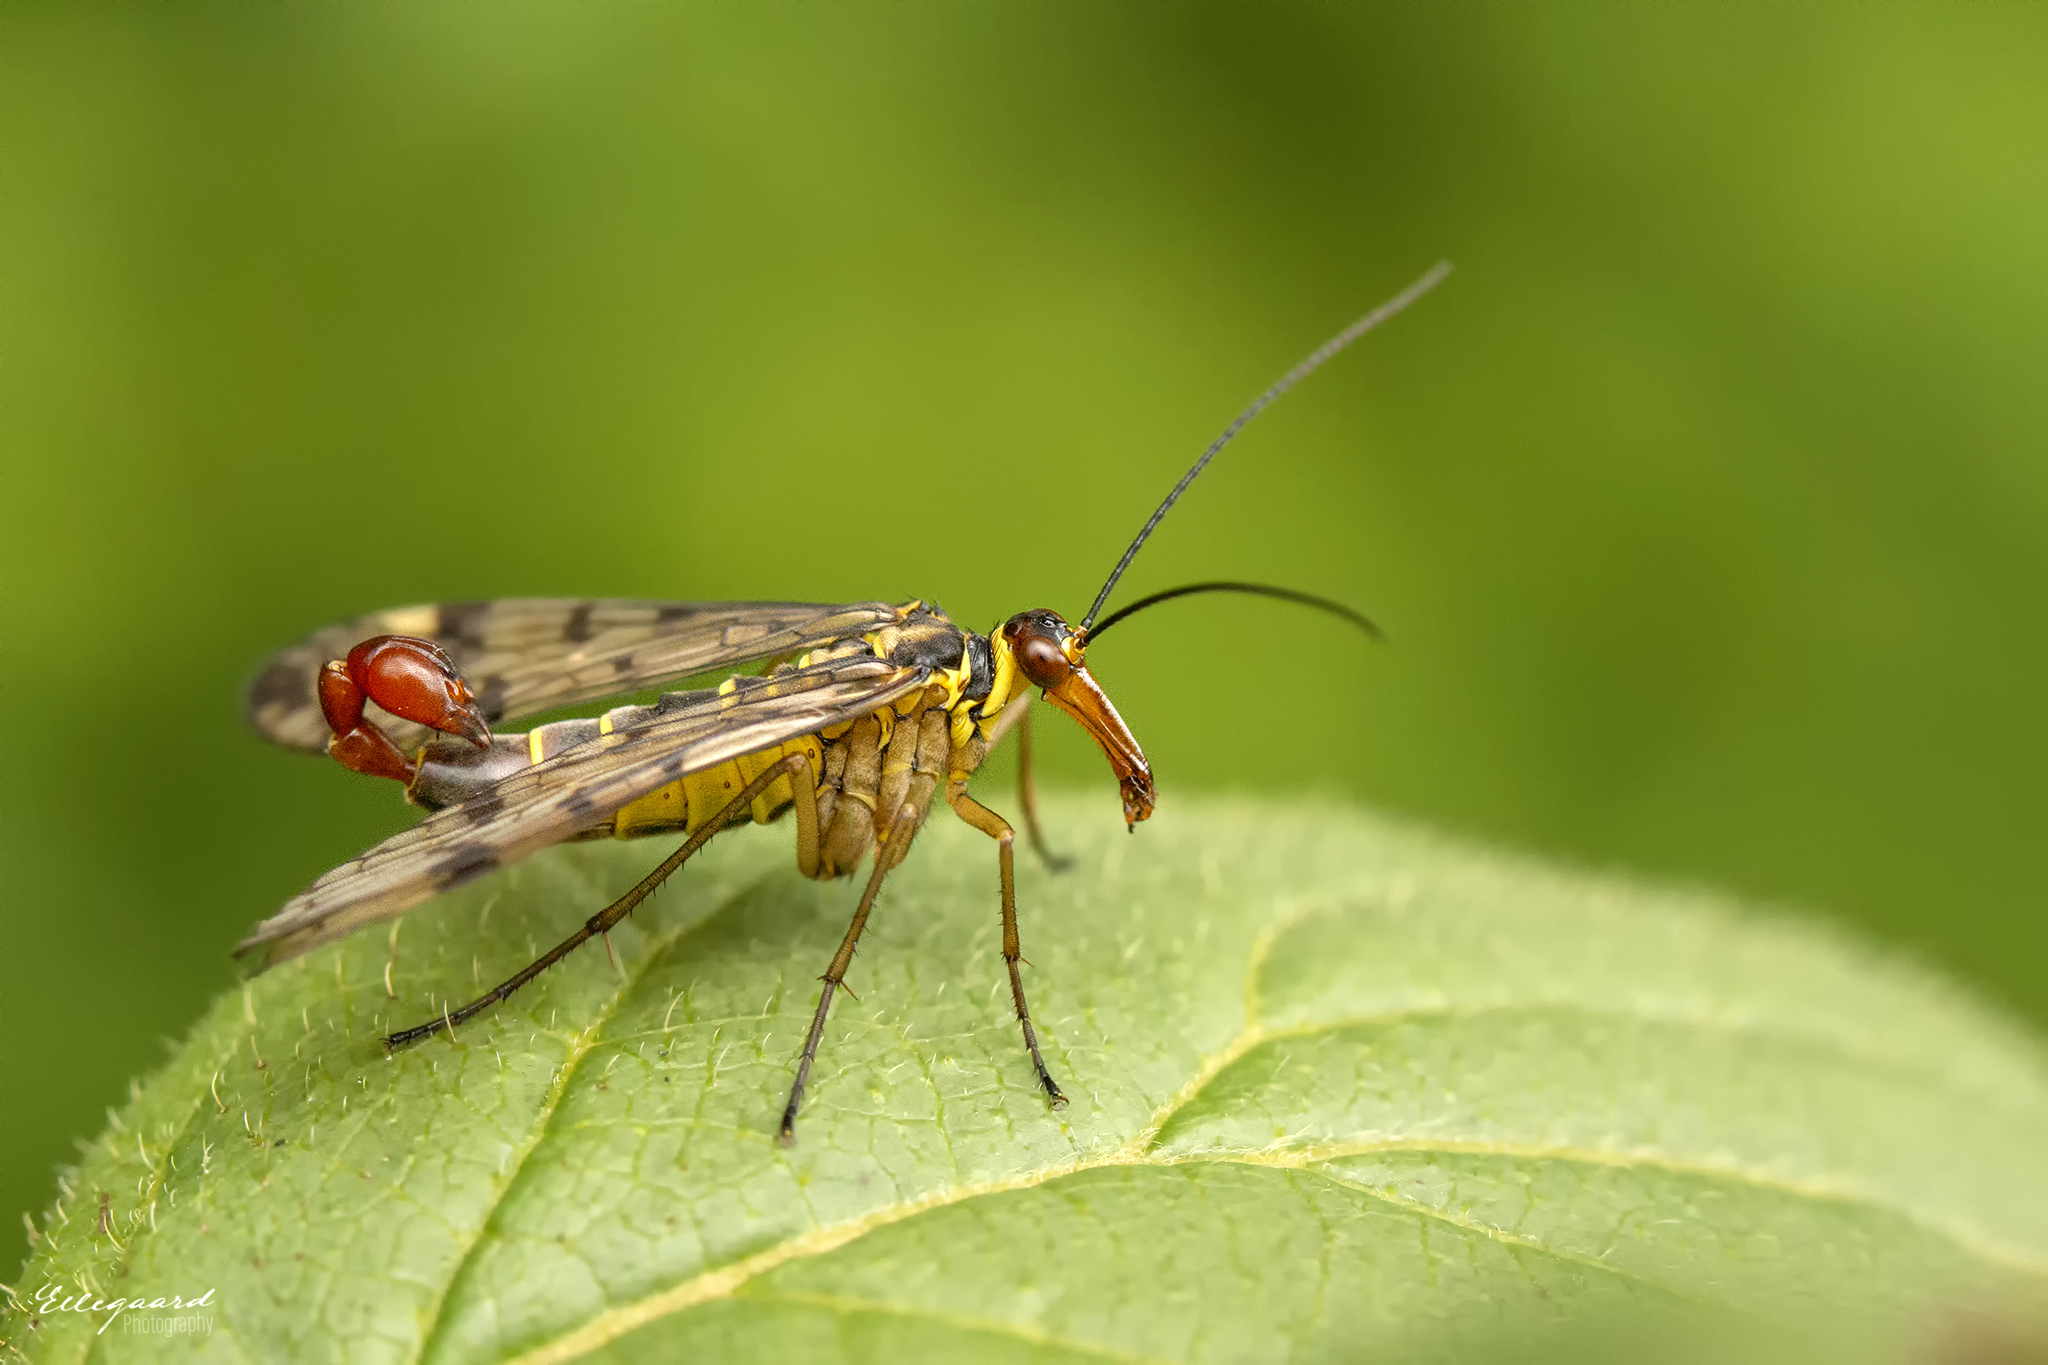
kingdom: Animalia
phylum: Arthropoda
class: Insecta
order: Mecoptera
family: Panorpidae
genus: Panorpa
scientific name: Panorpa communis
